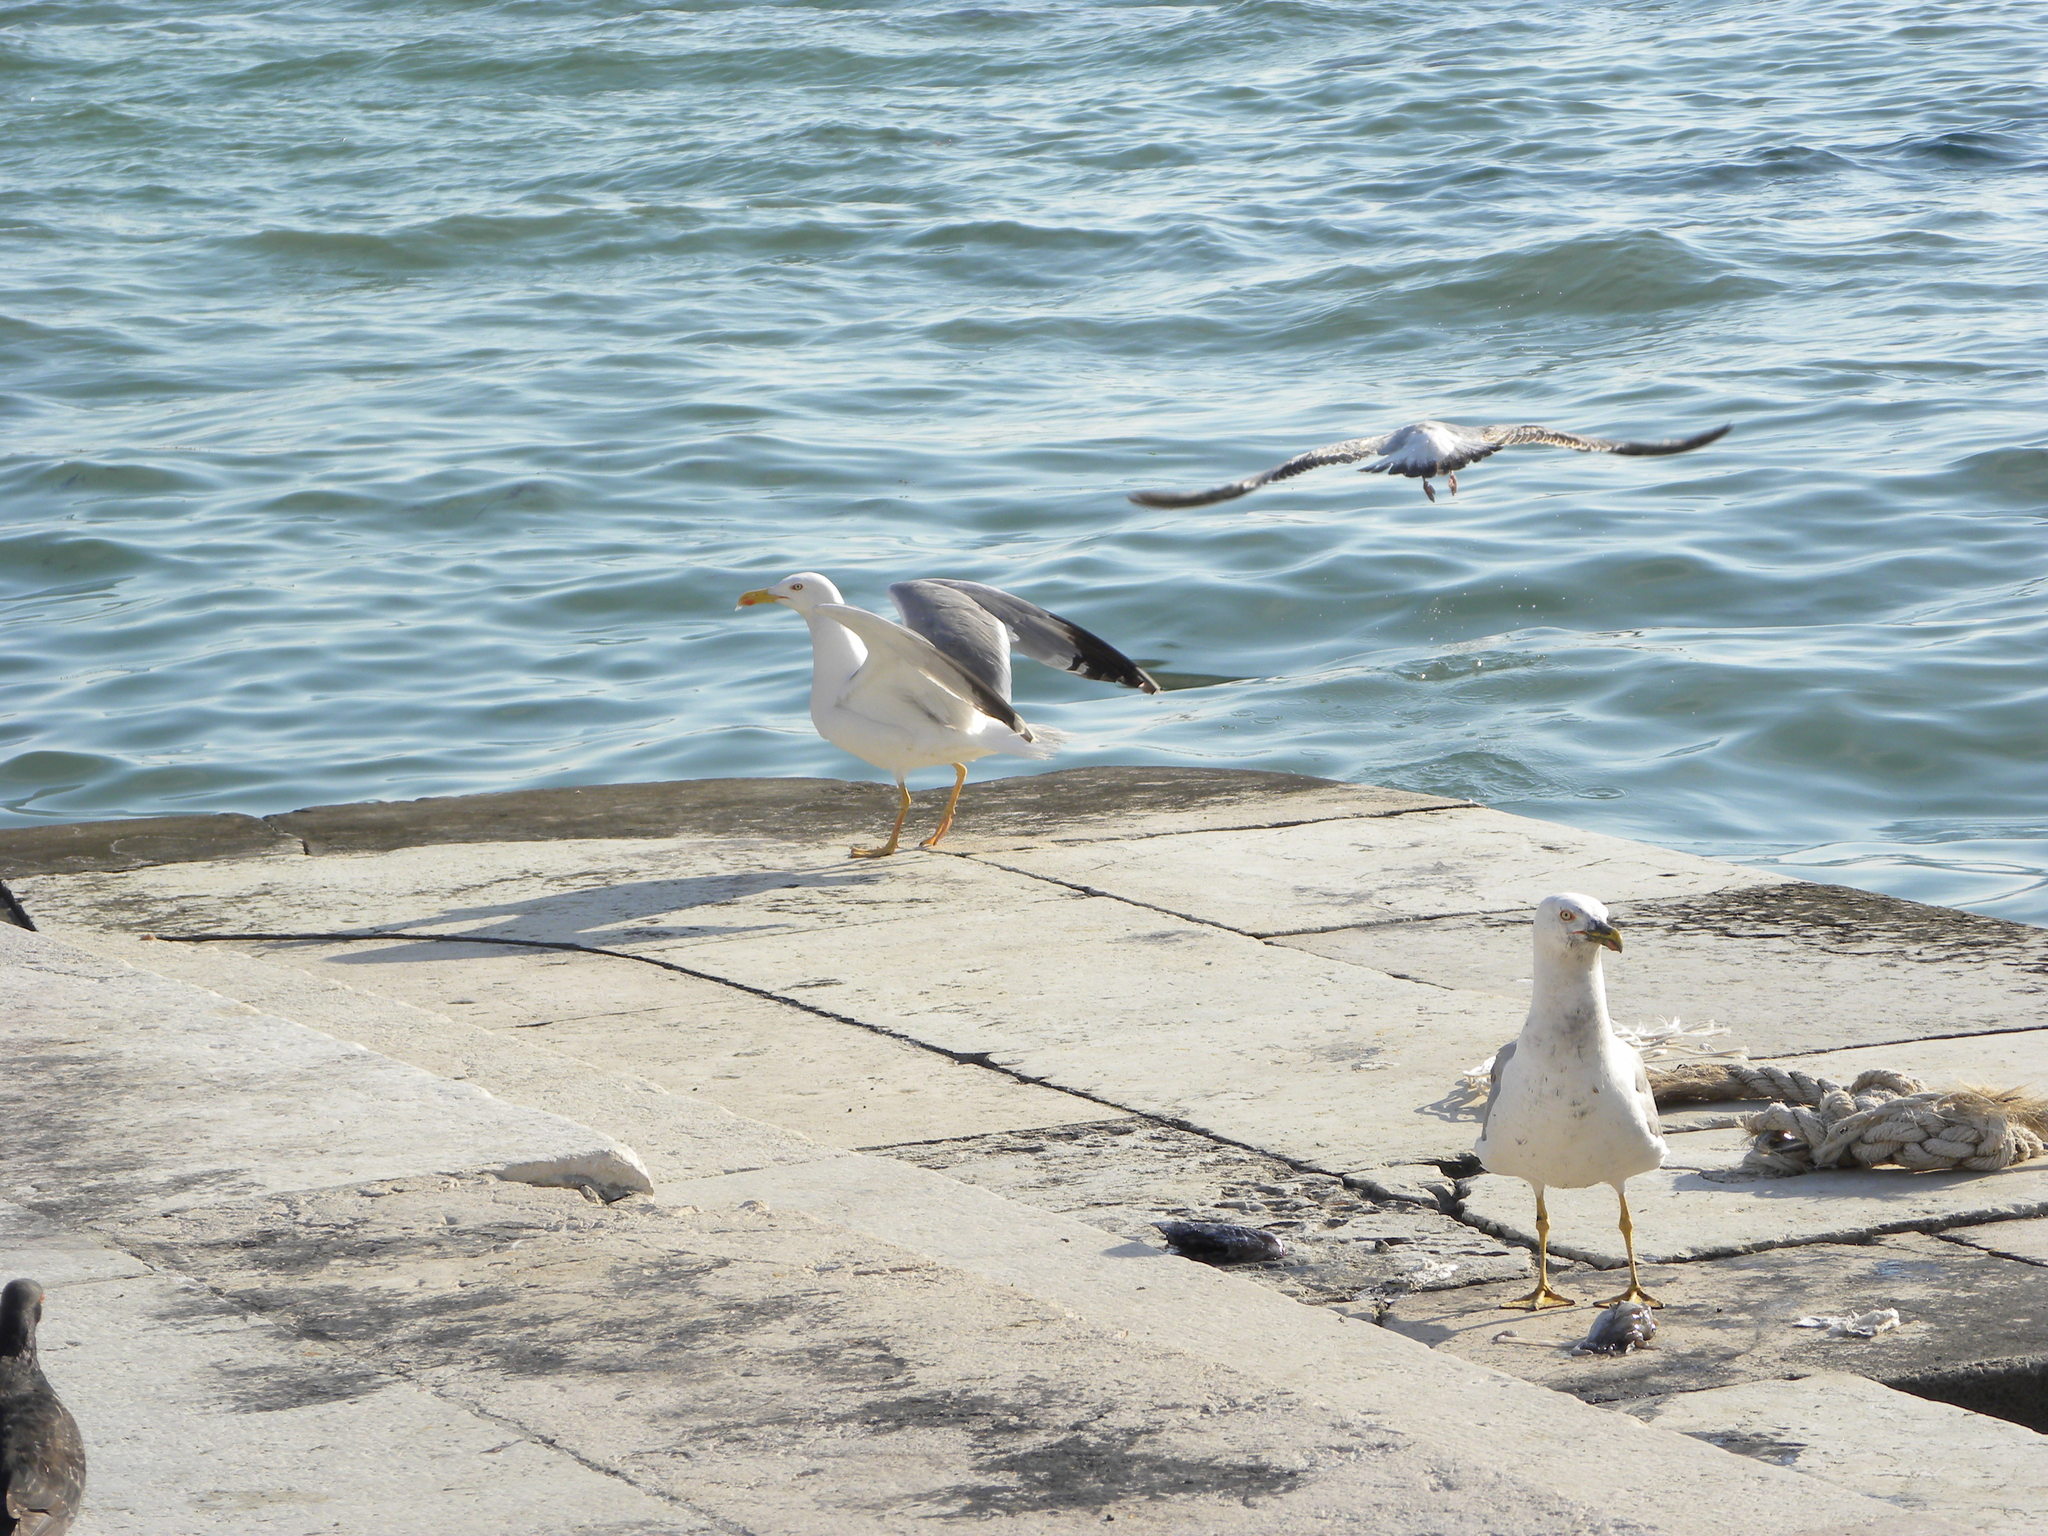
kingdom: Animalia
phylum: Chordata
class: Aves
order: Charadriiformes
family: Laridae
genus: Larus
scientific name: Larus michahellis
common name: Yellow-legged gull
